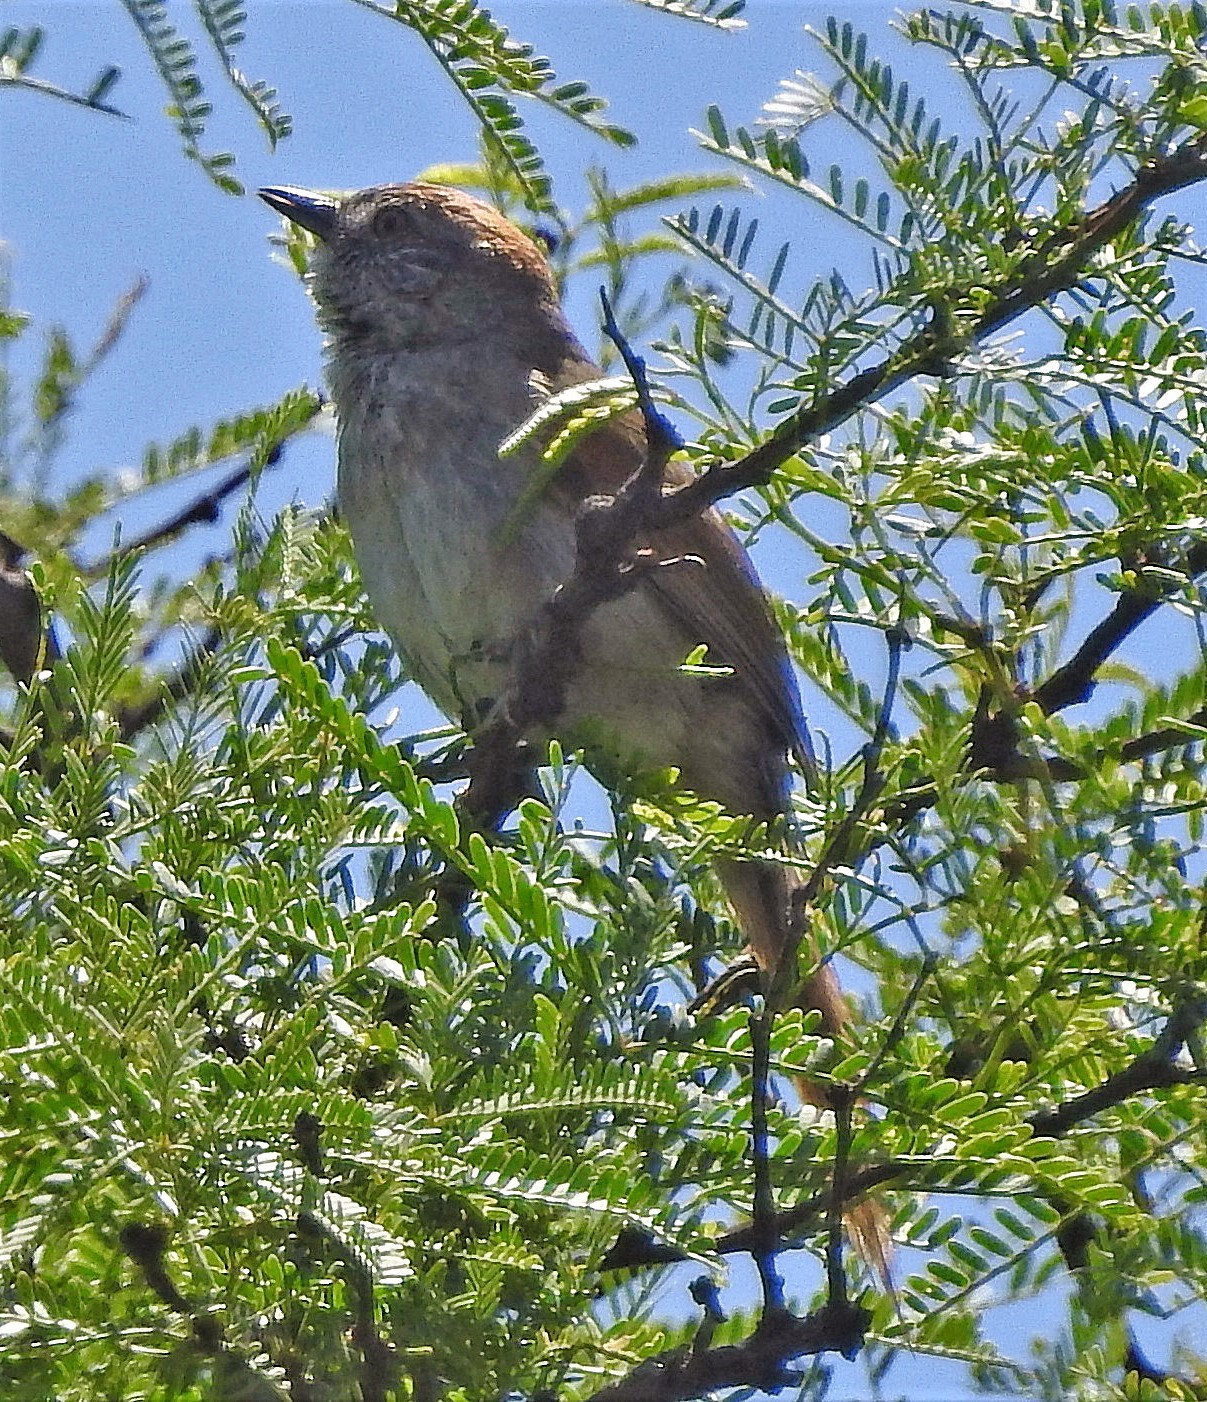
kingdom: Animalia
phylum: Chordata
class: Aves
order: Passeriformes
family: Furnariidae
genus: Synallaxis
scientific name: Synallaxis albescens
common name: Pale-breasted spinetail
